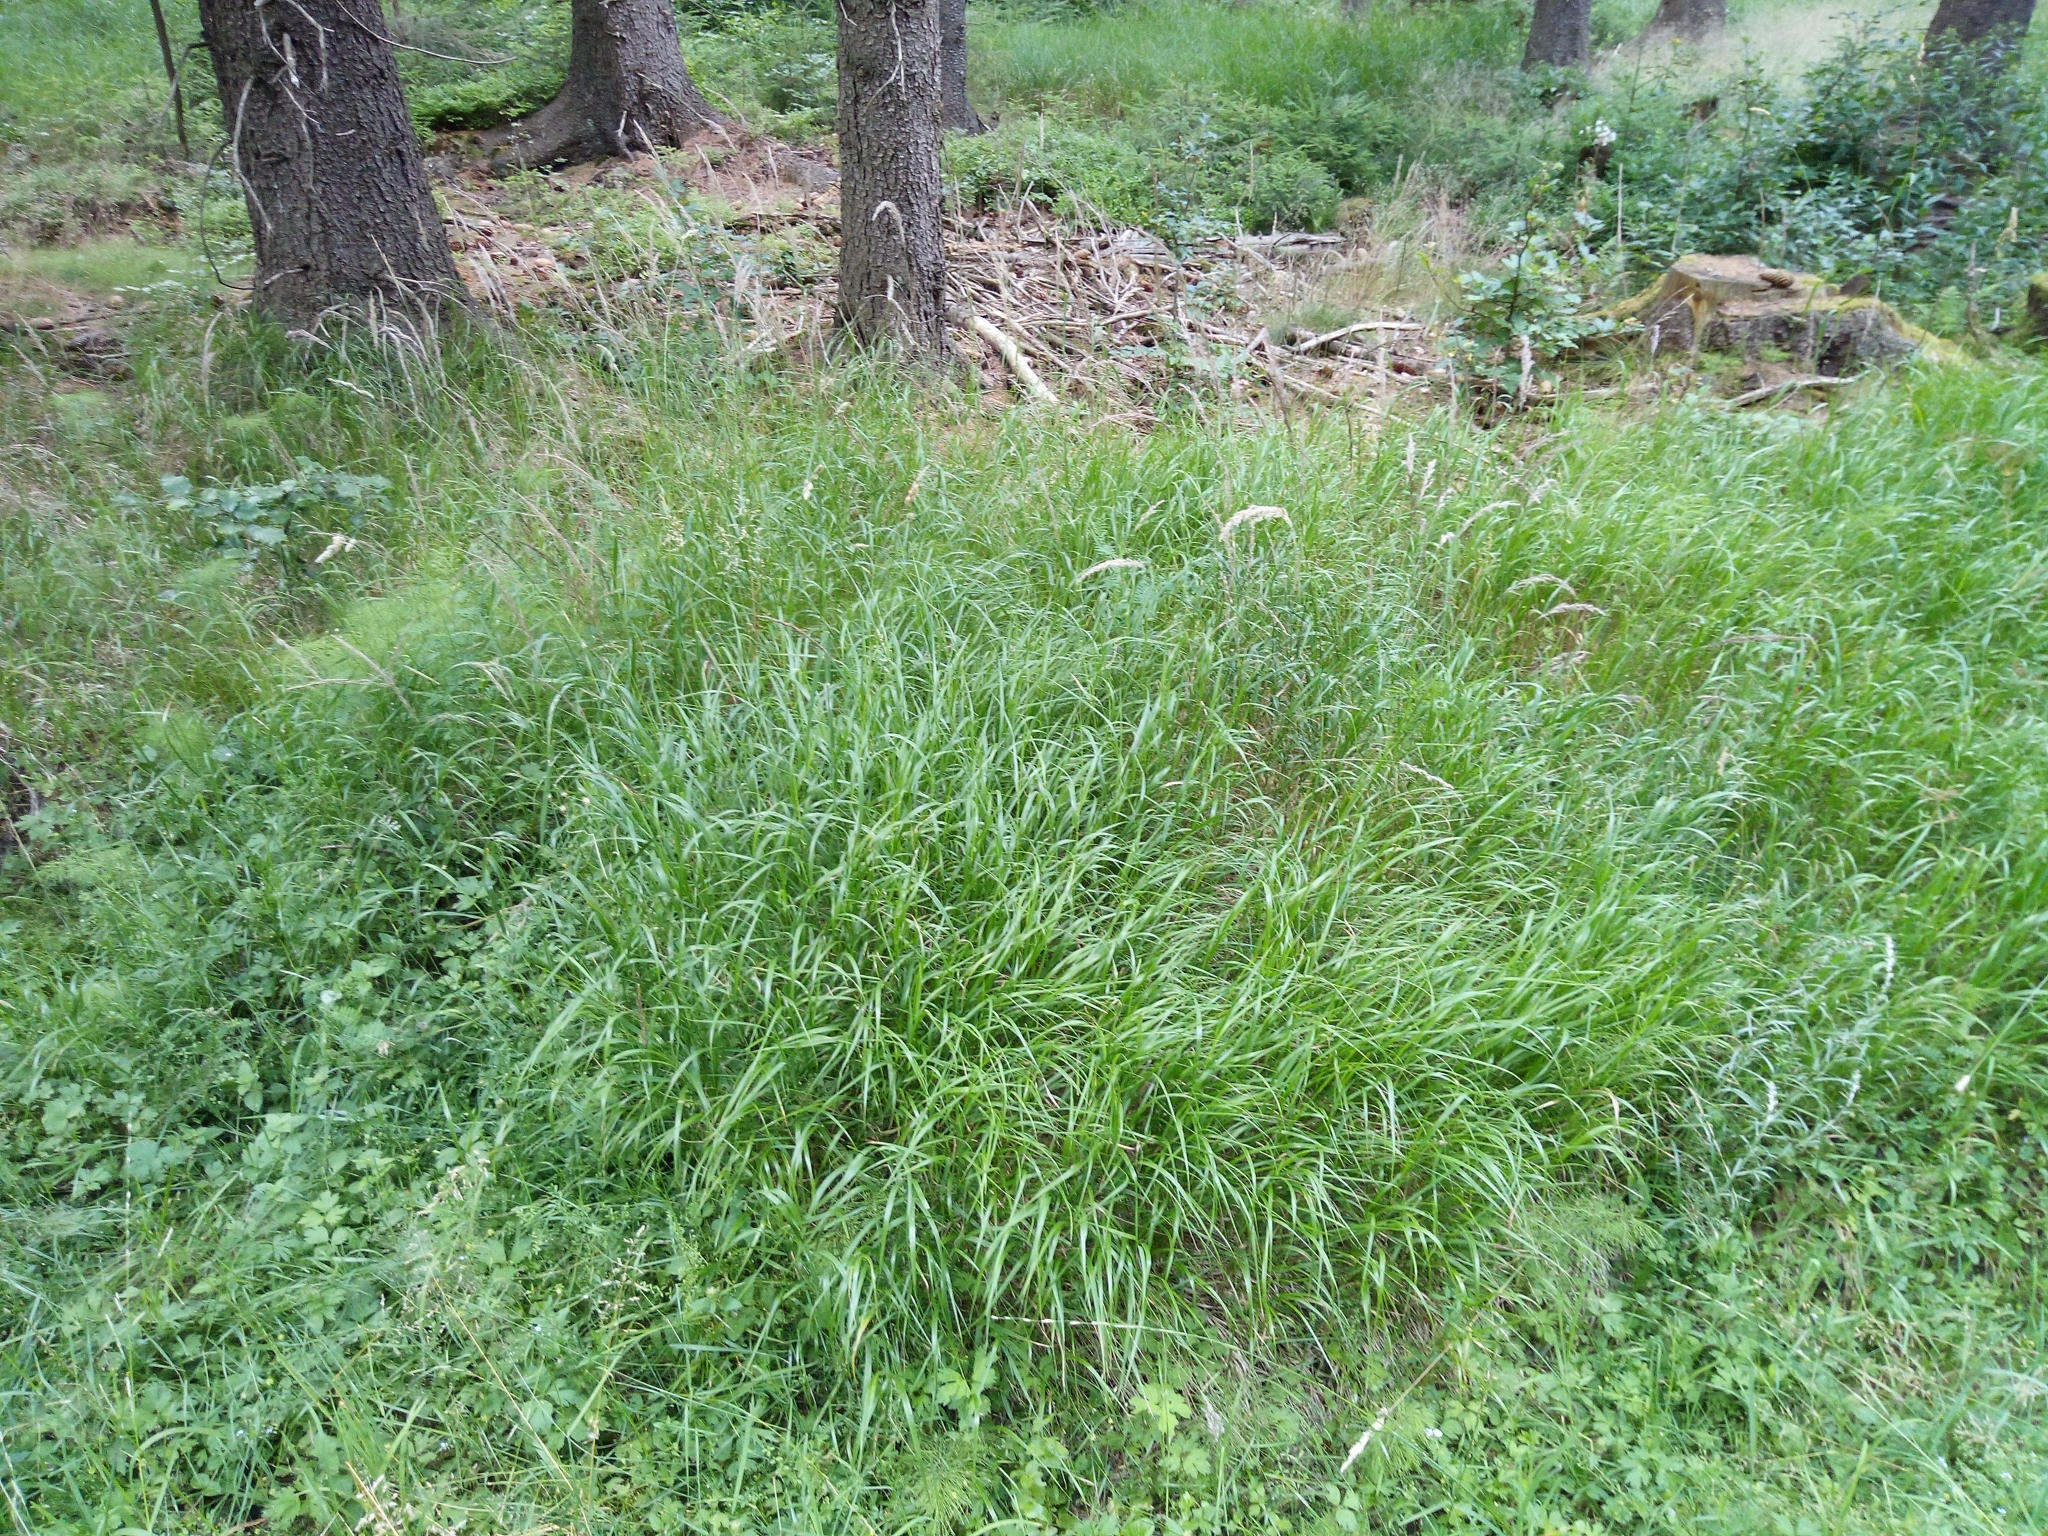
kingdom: Plantae
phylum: Tracheophyta
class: Liliopsida
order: Poales
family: Poaceae
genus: Calamagrostis
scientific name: Calamagrostis villosa
